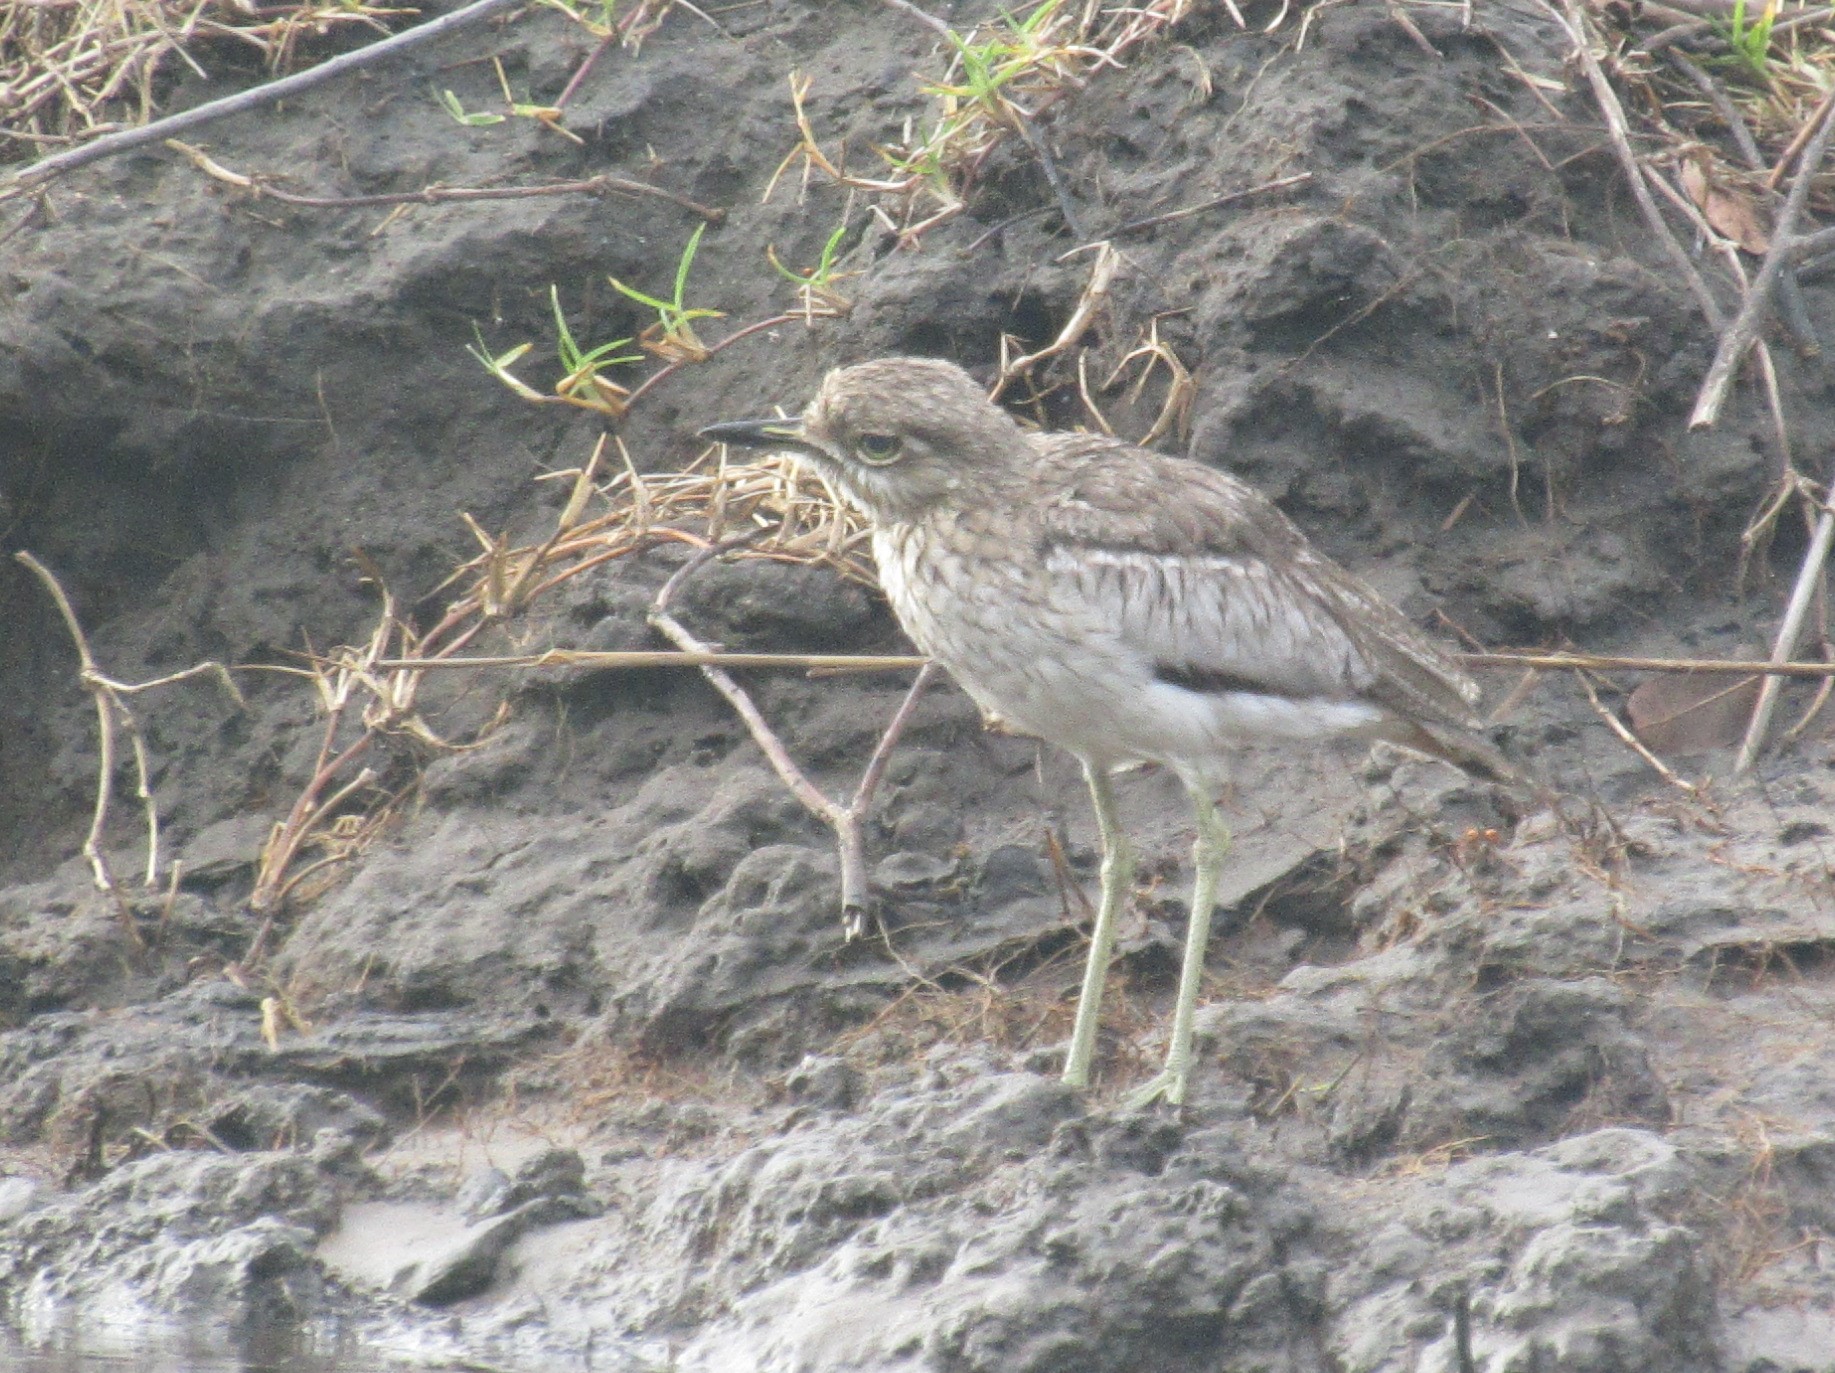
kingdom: Animalia
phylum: Chordata
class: Aves
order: Charadriiformes
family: Burhinidae
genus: Burhinus
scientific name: Burhinus vermiculatus
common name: Water thick-knee
